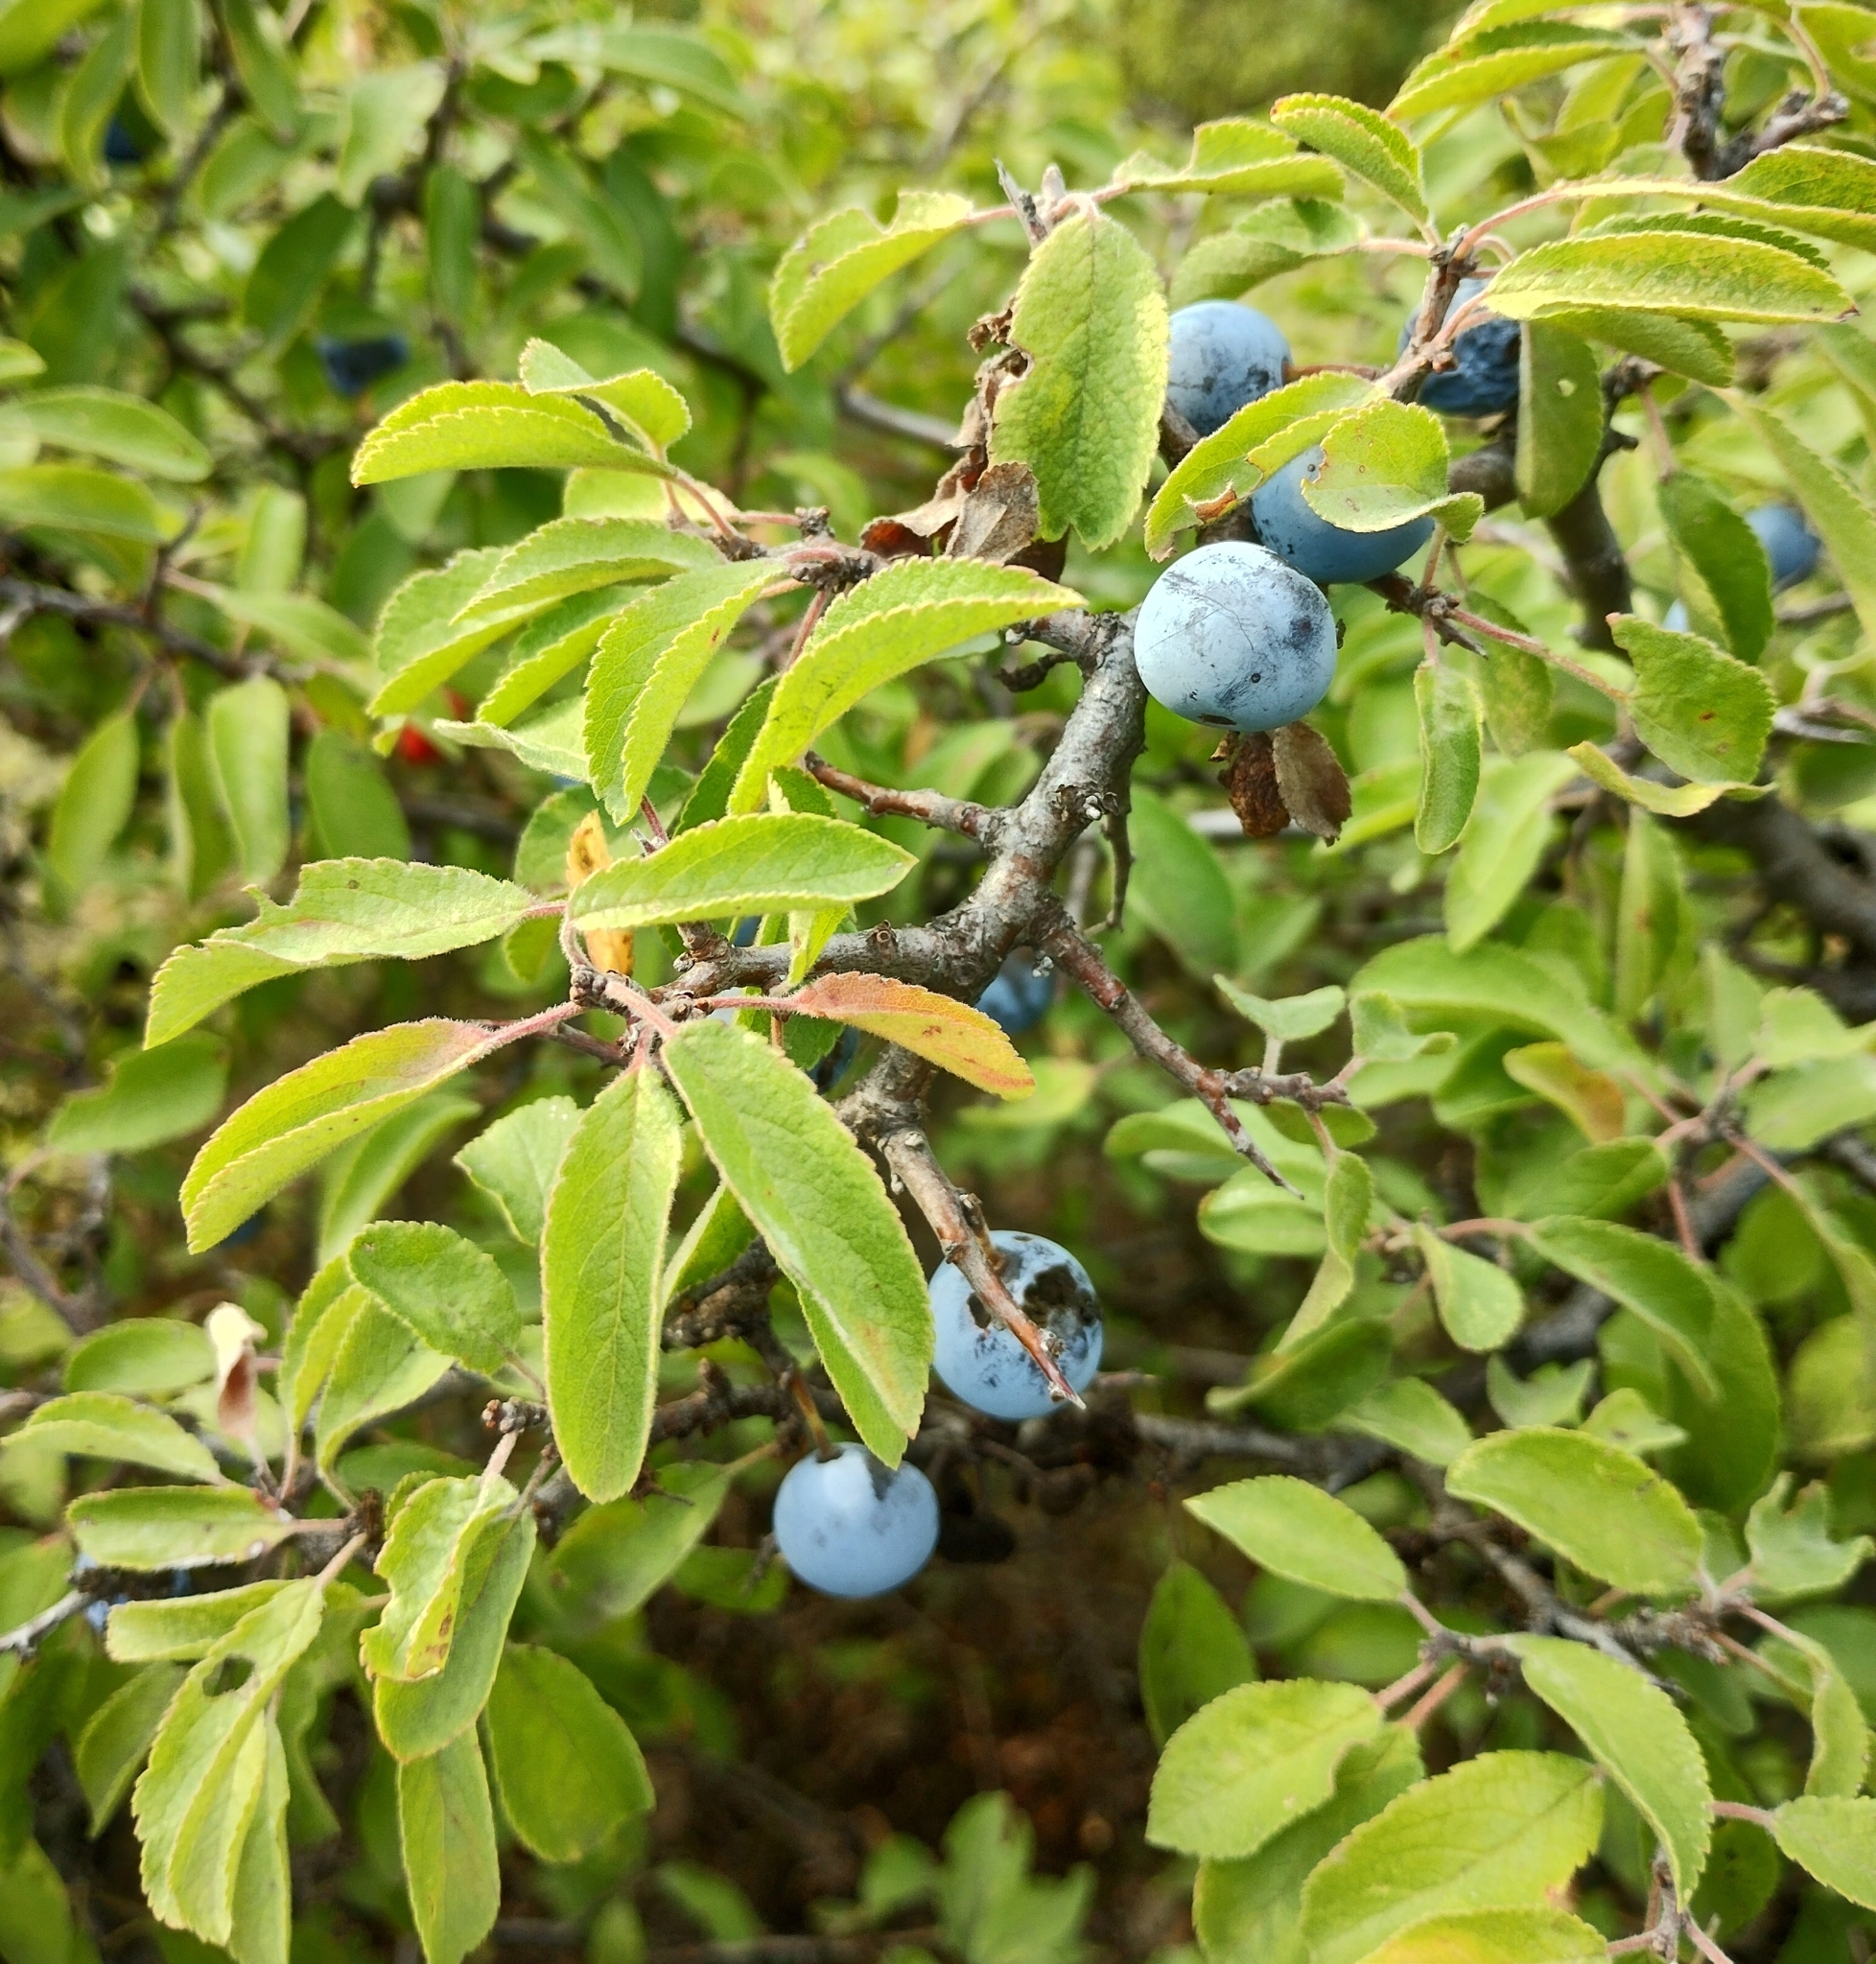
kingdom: Plantae
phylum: Tracheophyta
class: Magnoliopsida
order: Rosales
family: Rosaceae
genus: Prunus
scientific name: Prunus spinosa
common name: Blackthorn
